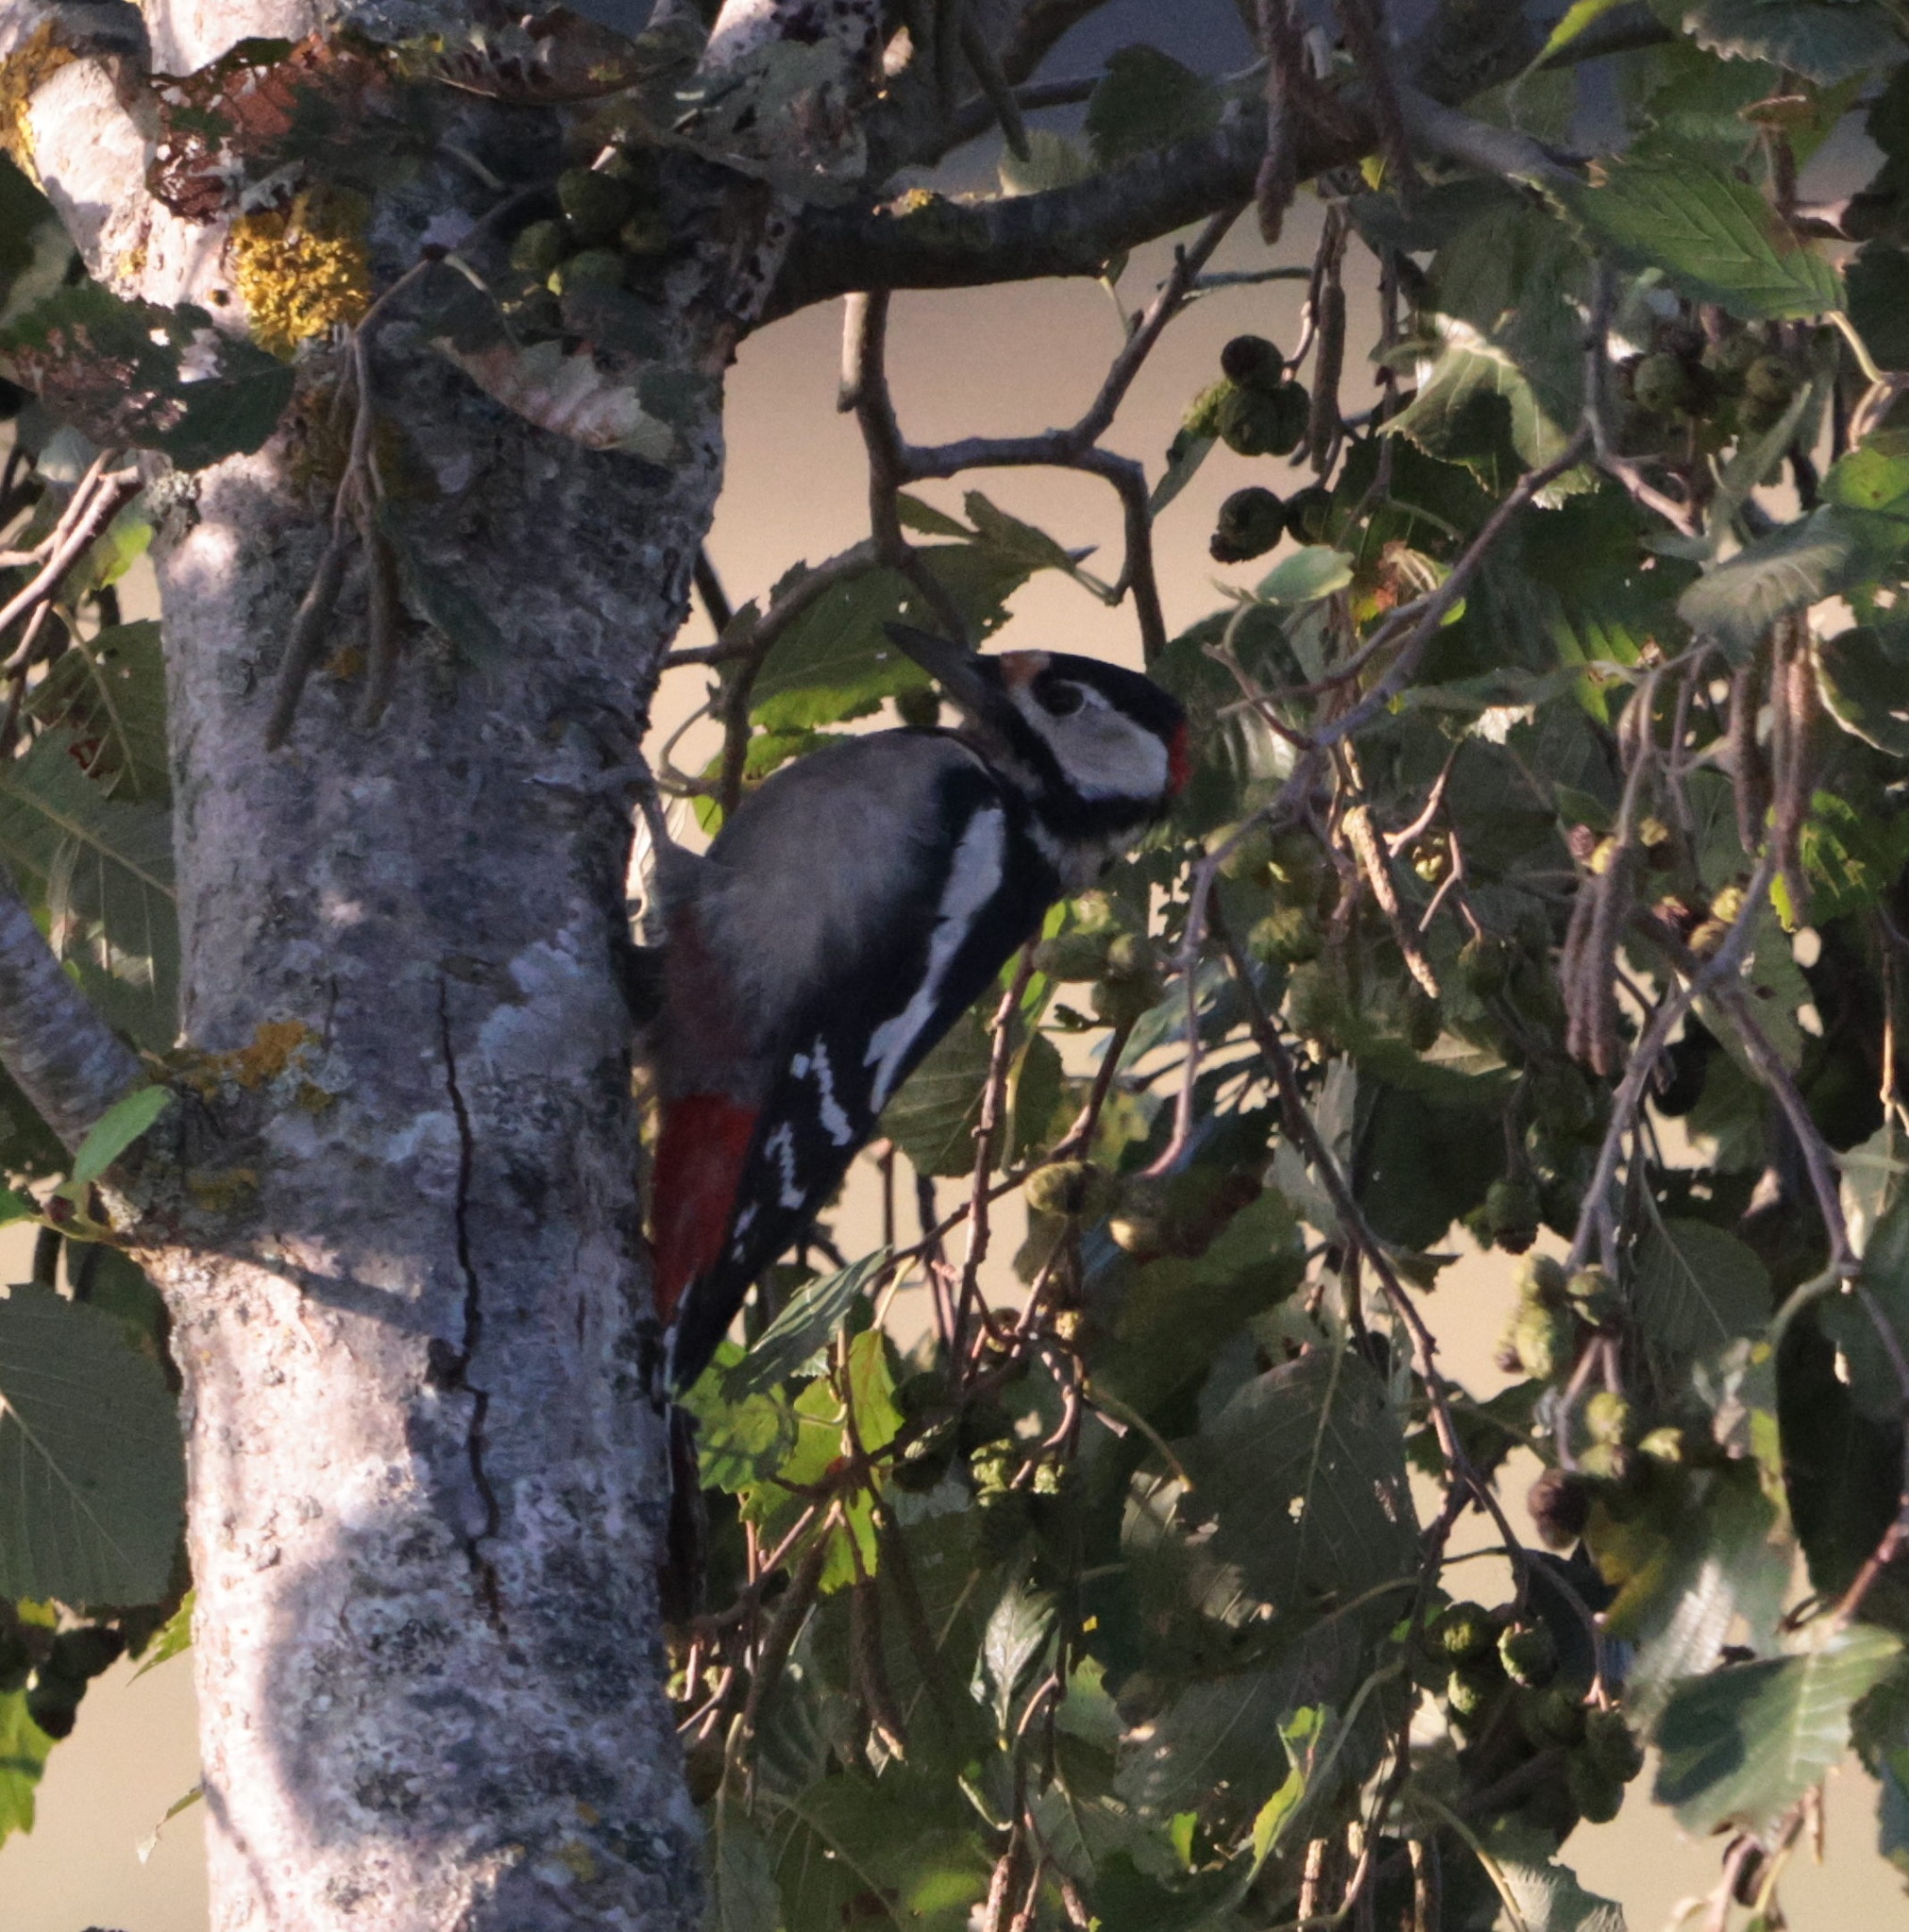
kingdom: Animalia
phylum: Chordata
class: Aves
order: Piciformes
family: Picidae
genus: Dendrocopos
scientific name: Dendrocopos major
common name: Great spotted woodpecker
